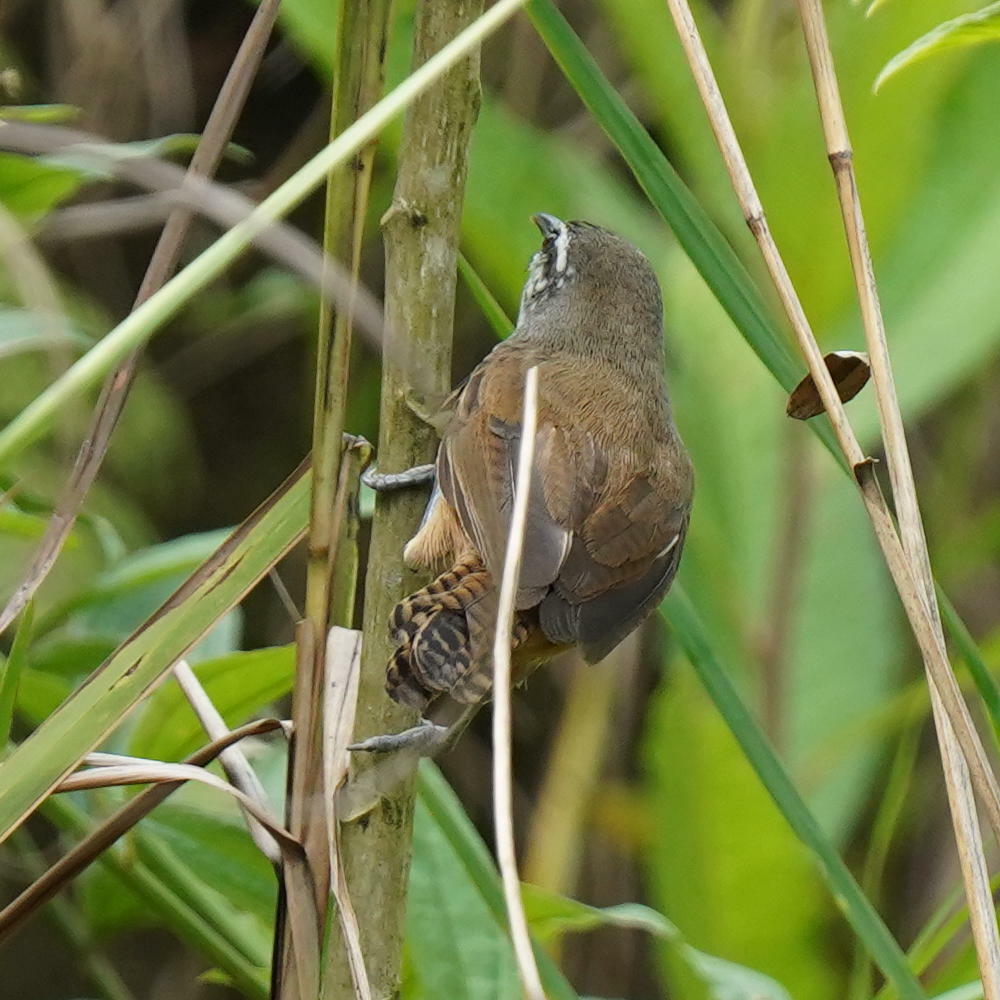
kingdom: Animalia
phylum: Chordata
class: Aves
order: Passeriformes
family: Troglodytidae
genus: Cantorchilus
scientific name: Cantorchilus modestus
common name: Cabanis's wren
